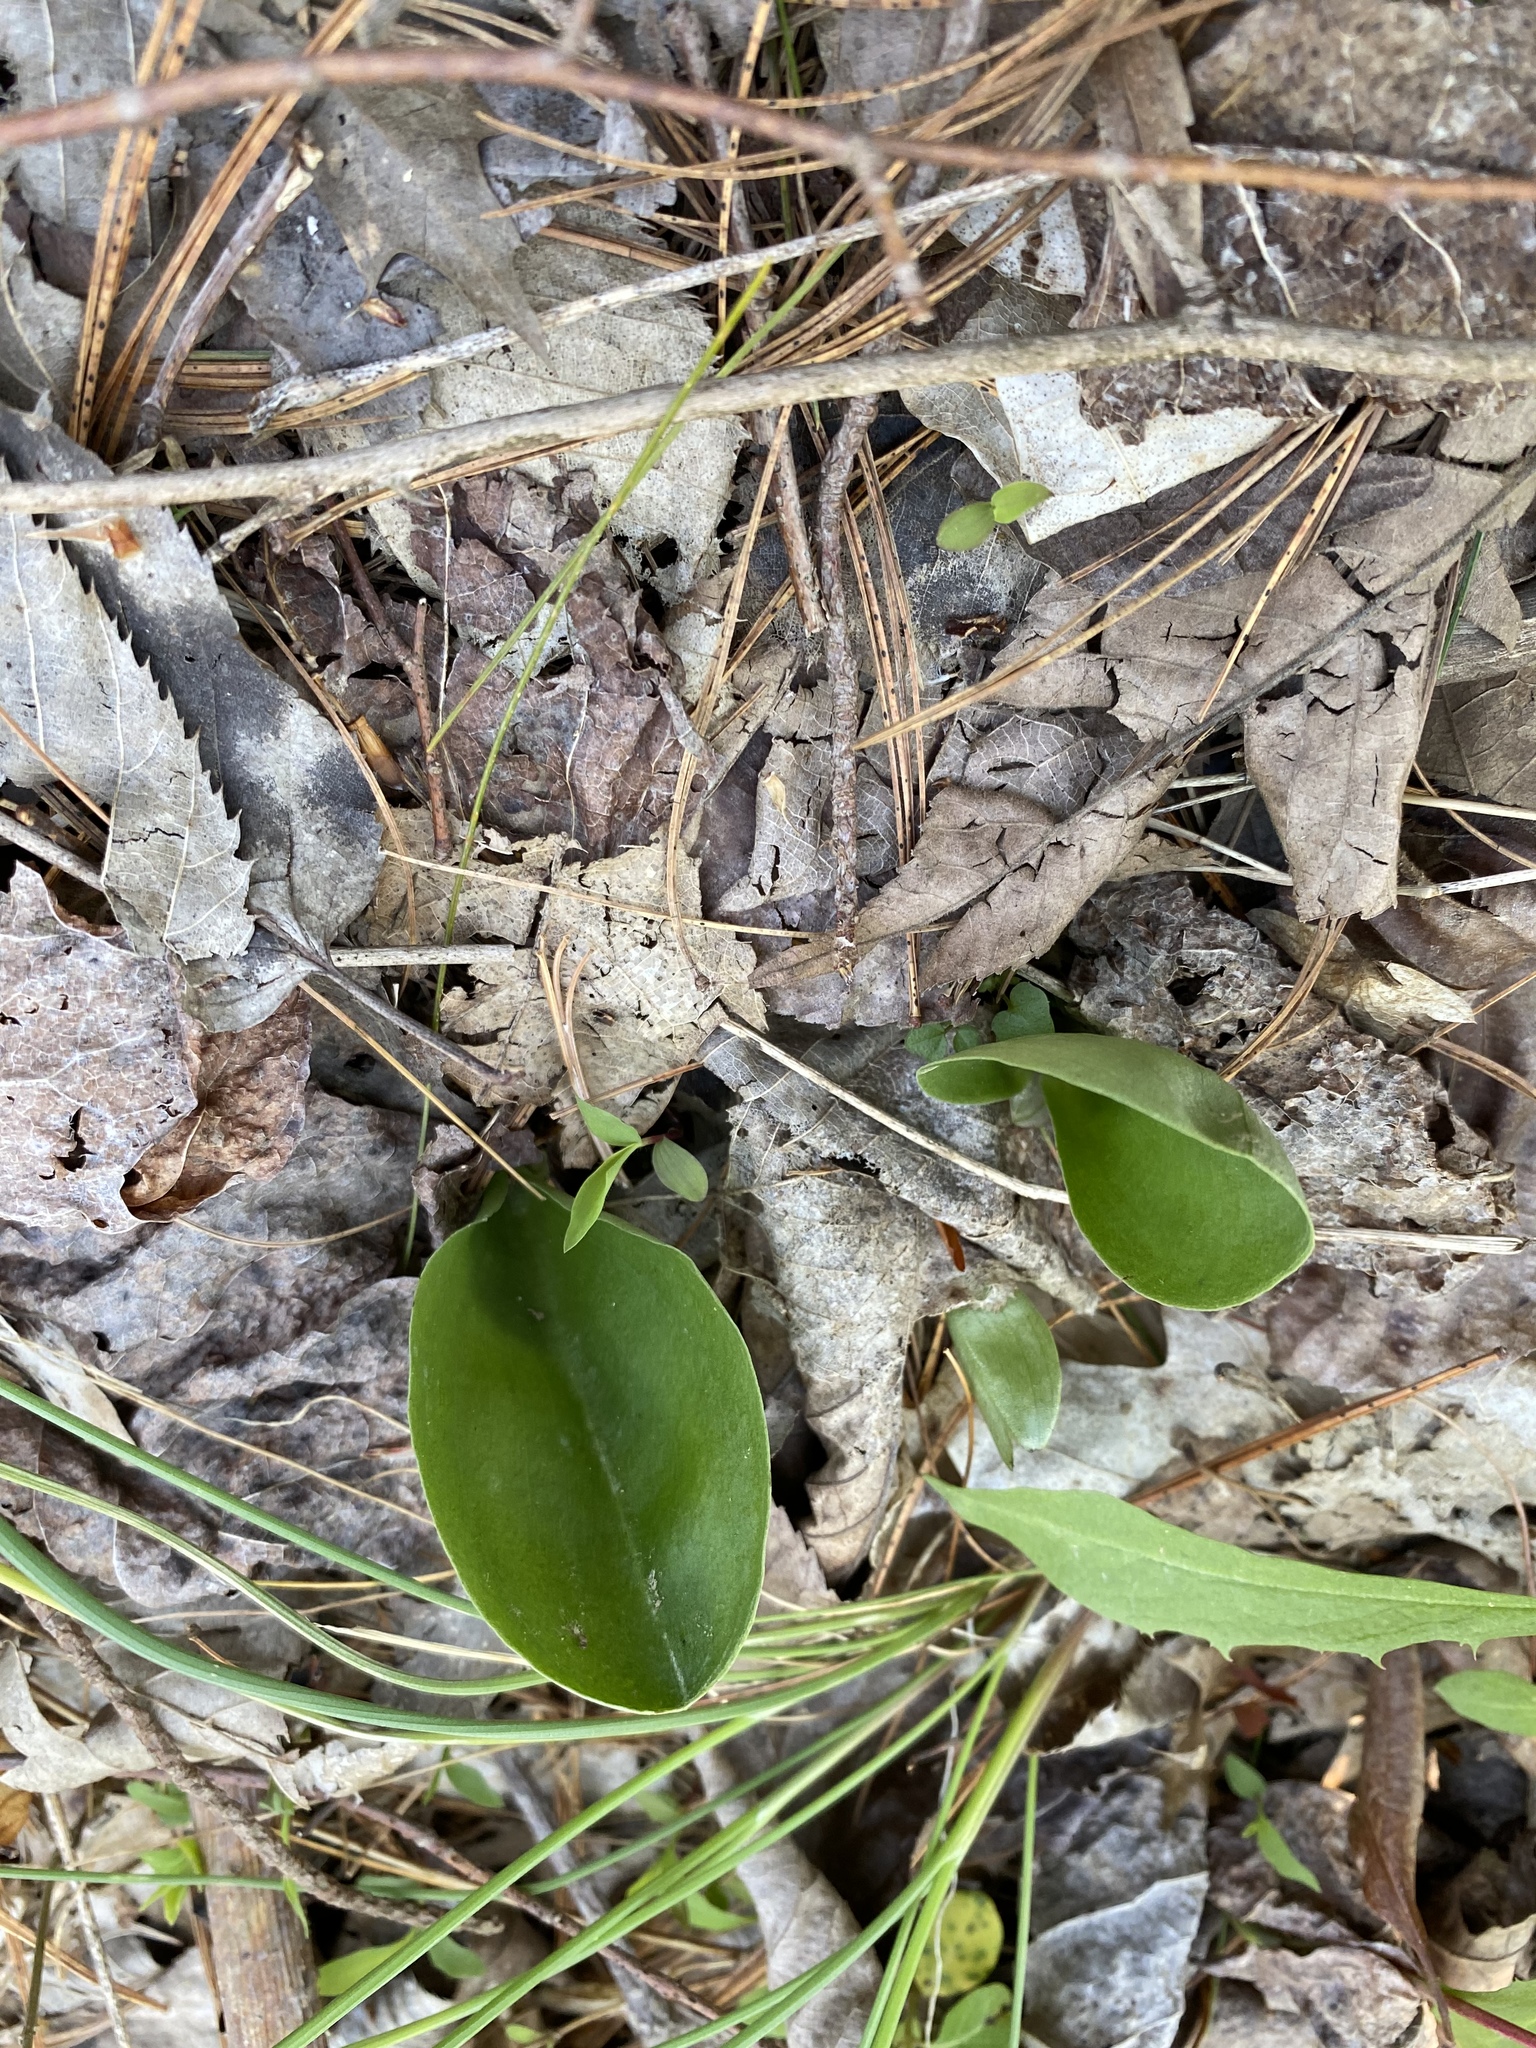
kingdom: Plantae
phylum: Tracheophyta
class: Liliopsida
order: Asparagales
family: Orchidaceae
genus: Galearis
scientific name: Galearis spectabilis
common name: Purple-hooded orchis
